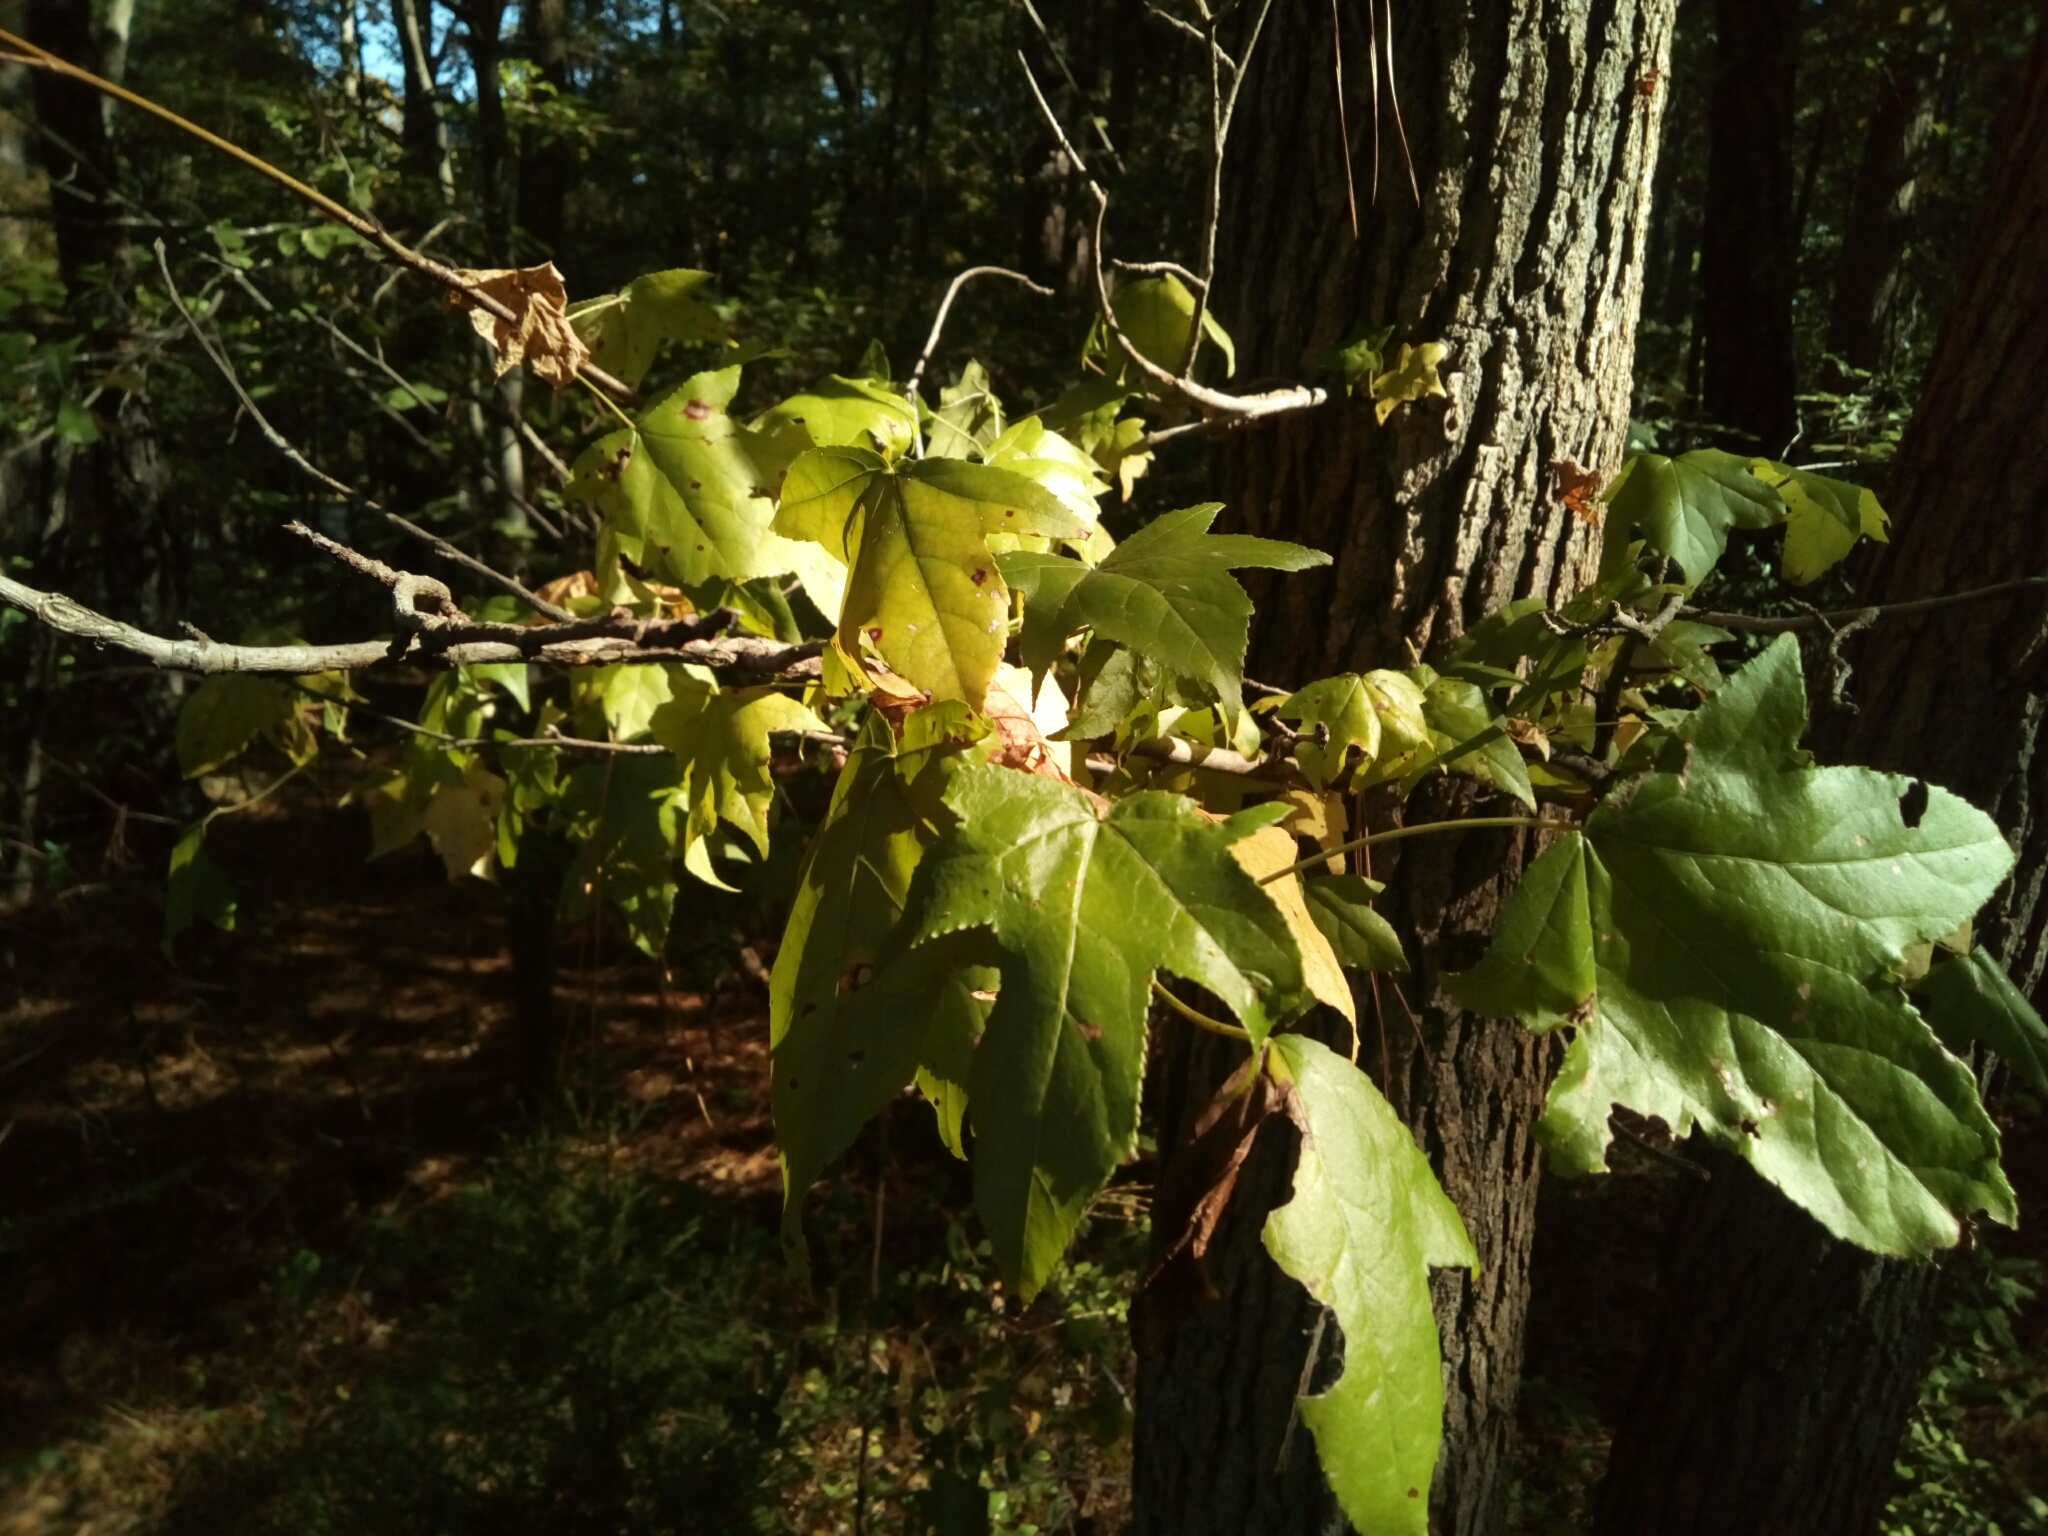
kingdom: Plantae
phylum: Tracheophyta
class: Magnoliopsida
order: Saxifragales
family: Altingiaceae
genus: Liquidambar
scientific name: Liquidambar styraciflua
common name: Sweet gum
